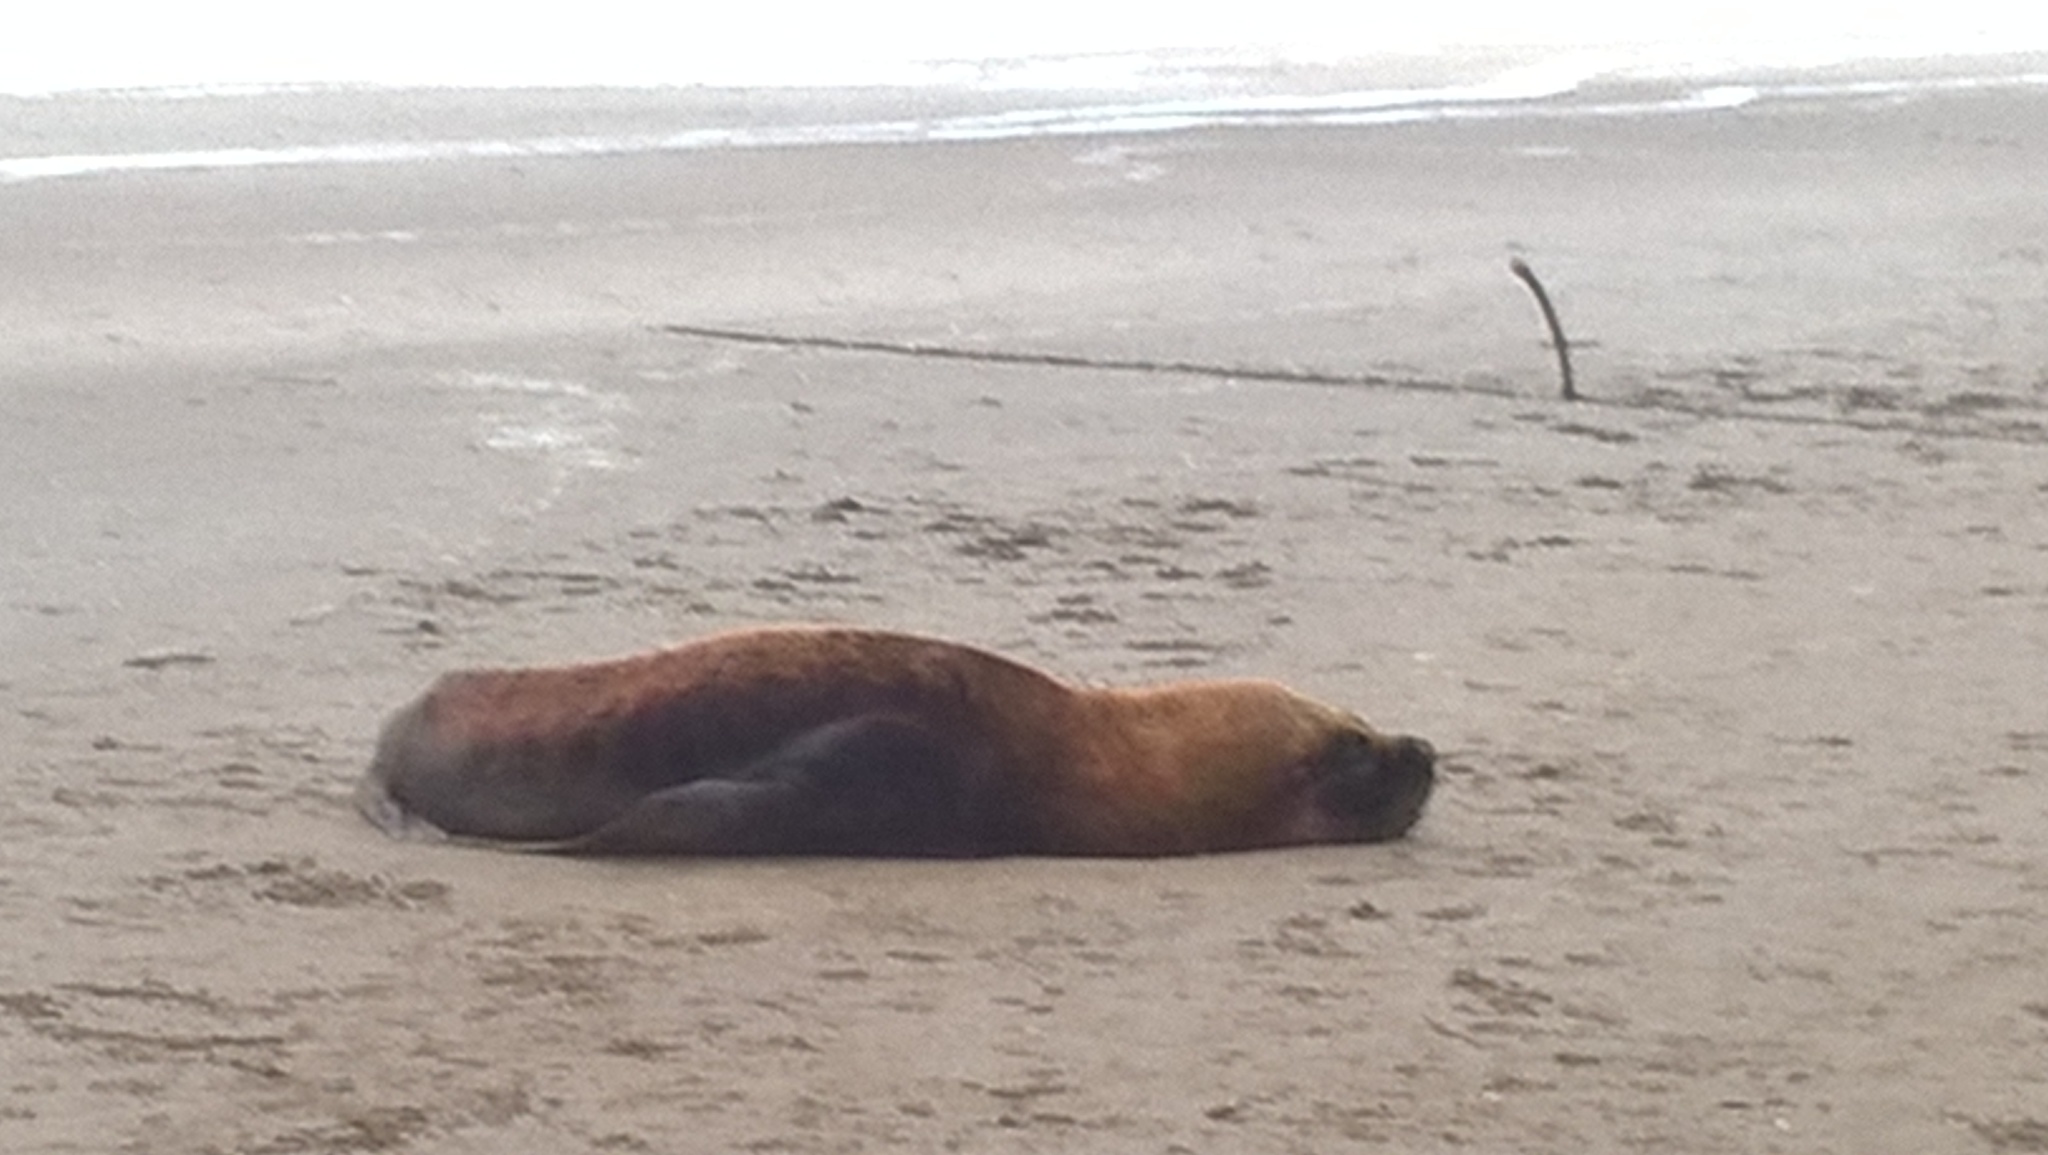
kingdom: Animalia
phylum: Chordata
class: Mammalia
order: Carnivora
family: Otariidae
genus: Otaria
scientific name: Otaria byronia
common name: South american sea lion
